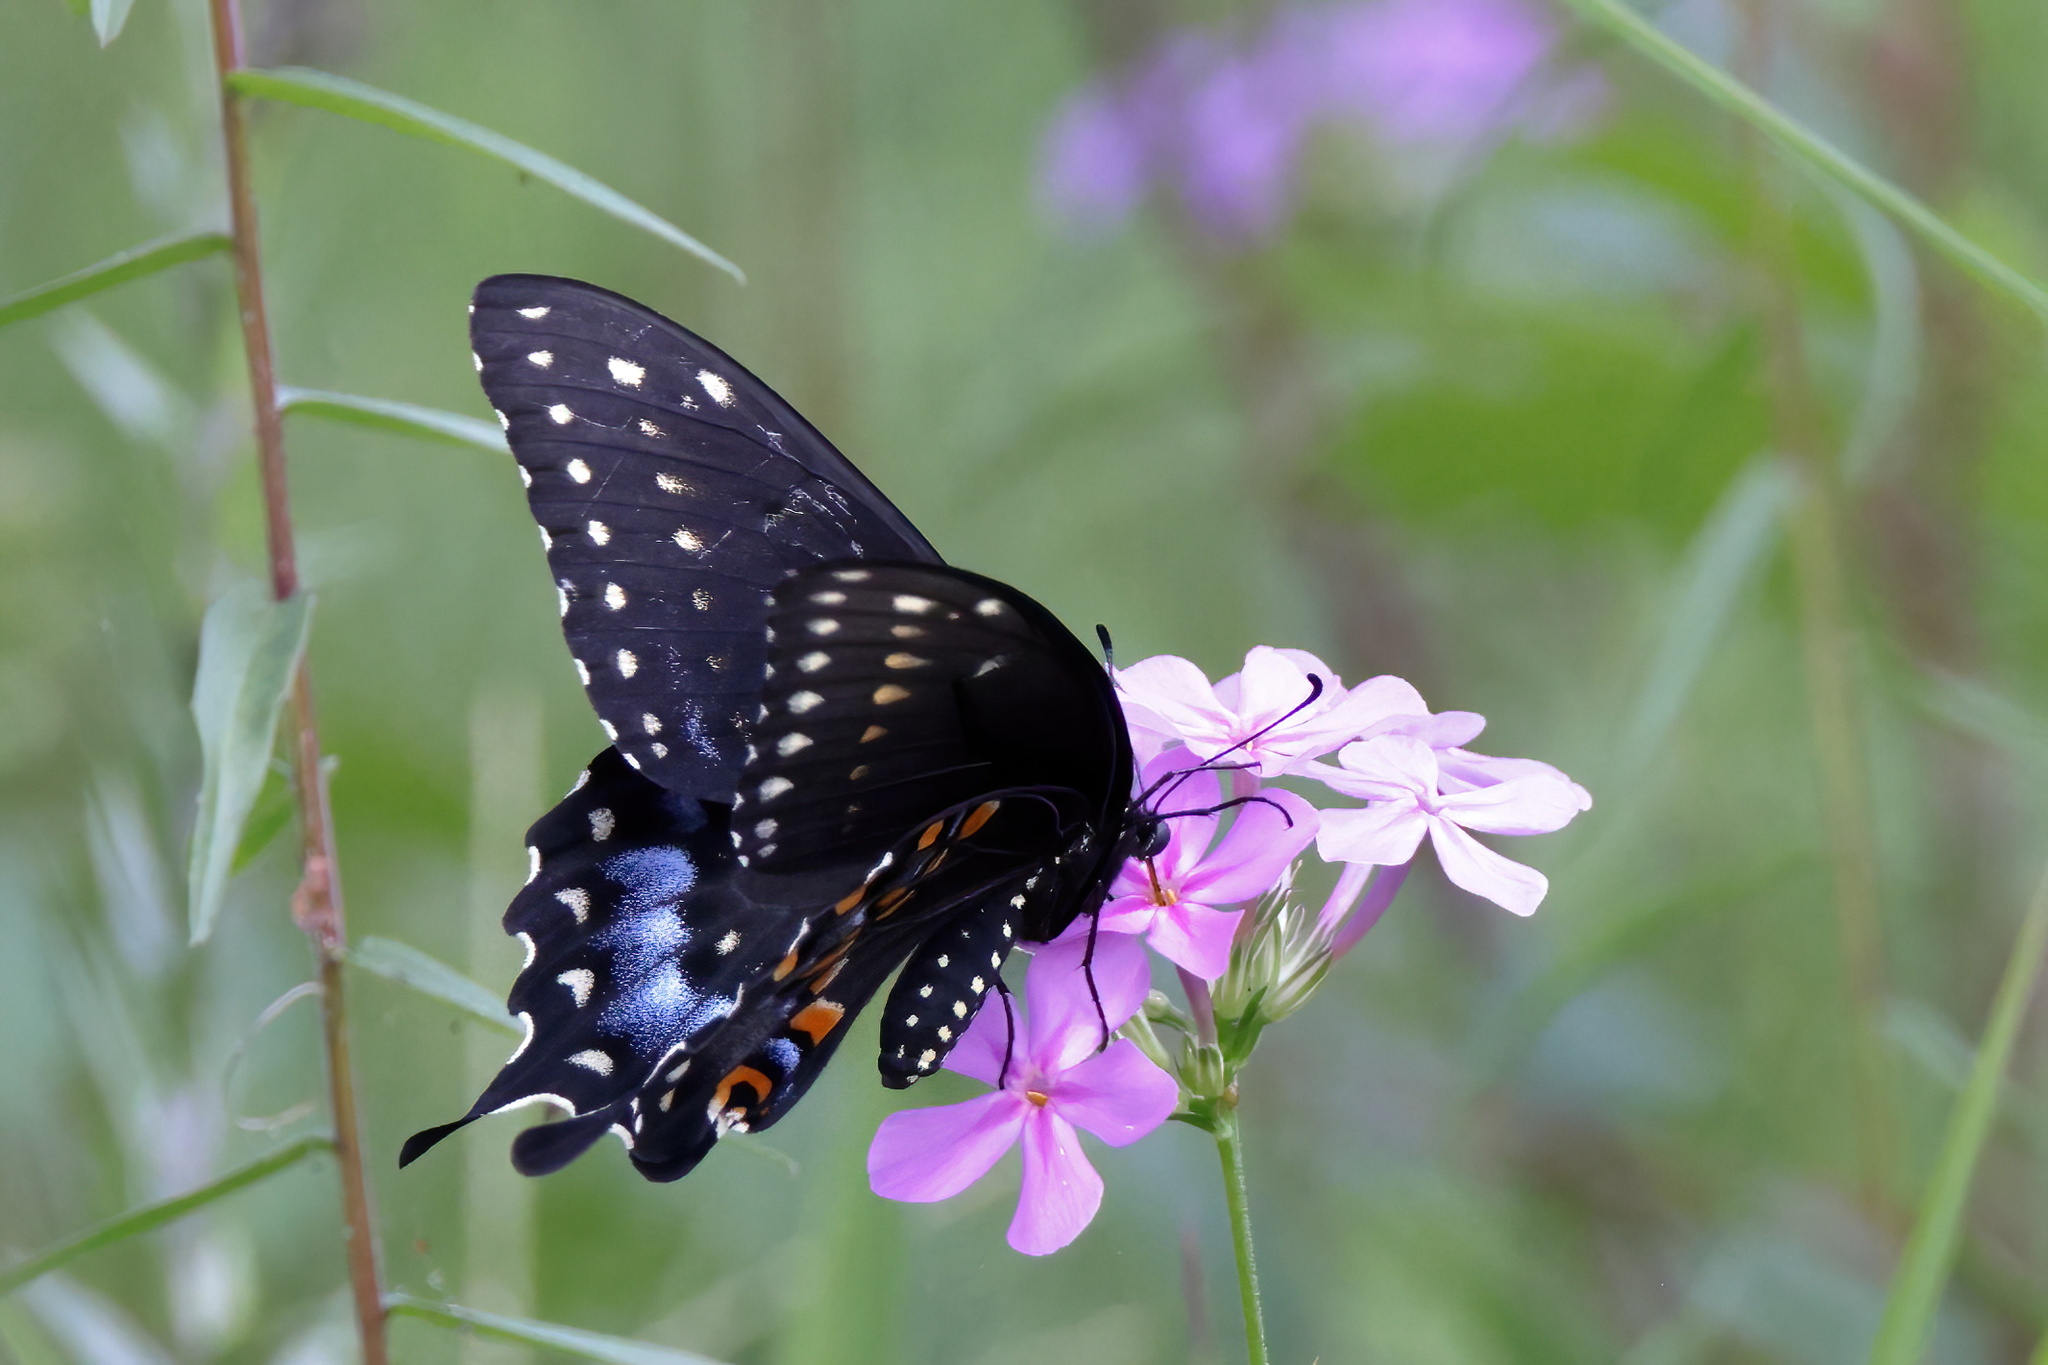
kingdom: Animalia
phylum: Arthropoda
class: Insecta
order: Lepidoptera
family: Papilionidae
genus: Papilio
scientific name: Papilio polyxenes
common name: Black swallowtail
